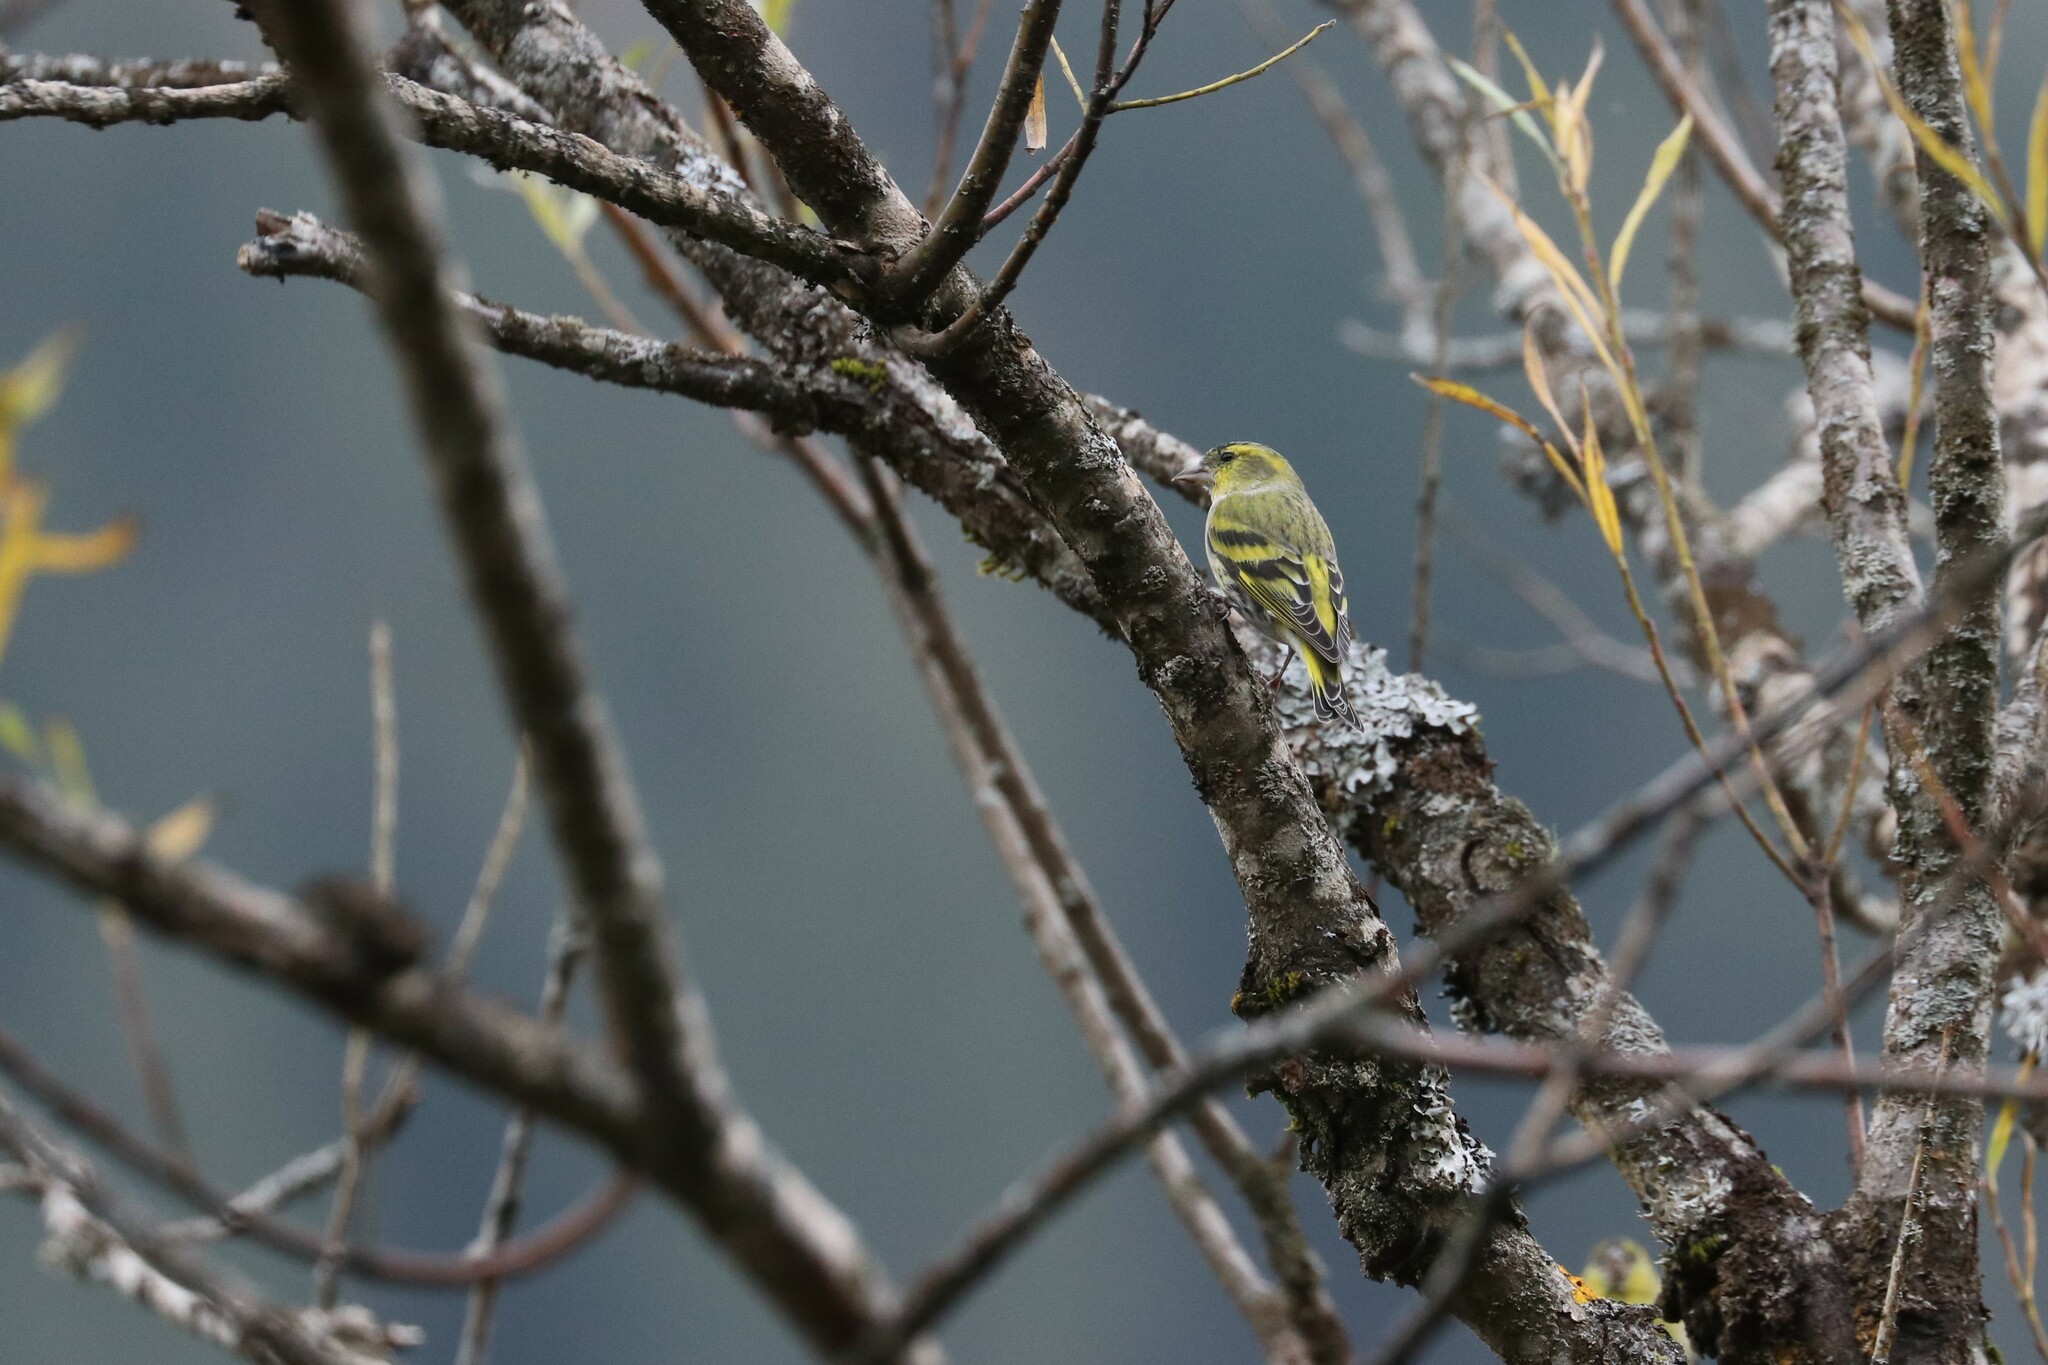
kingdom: Animalia
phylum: Chordata
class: Aves
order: Passeriformes
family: Fringillidae
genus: Spinus
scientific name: Spinus spinus
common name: Eurasian siskin
